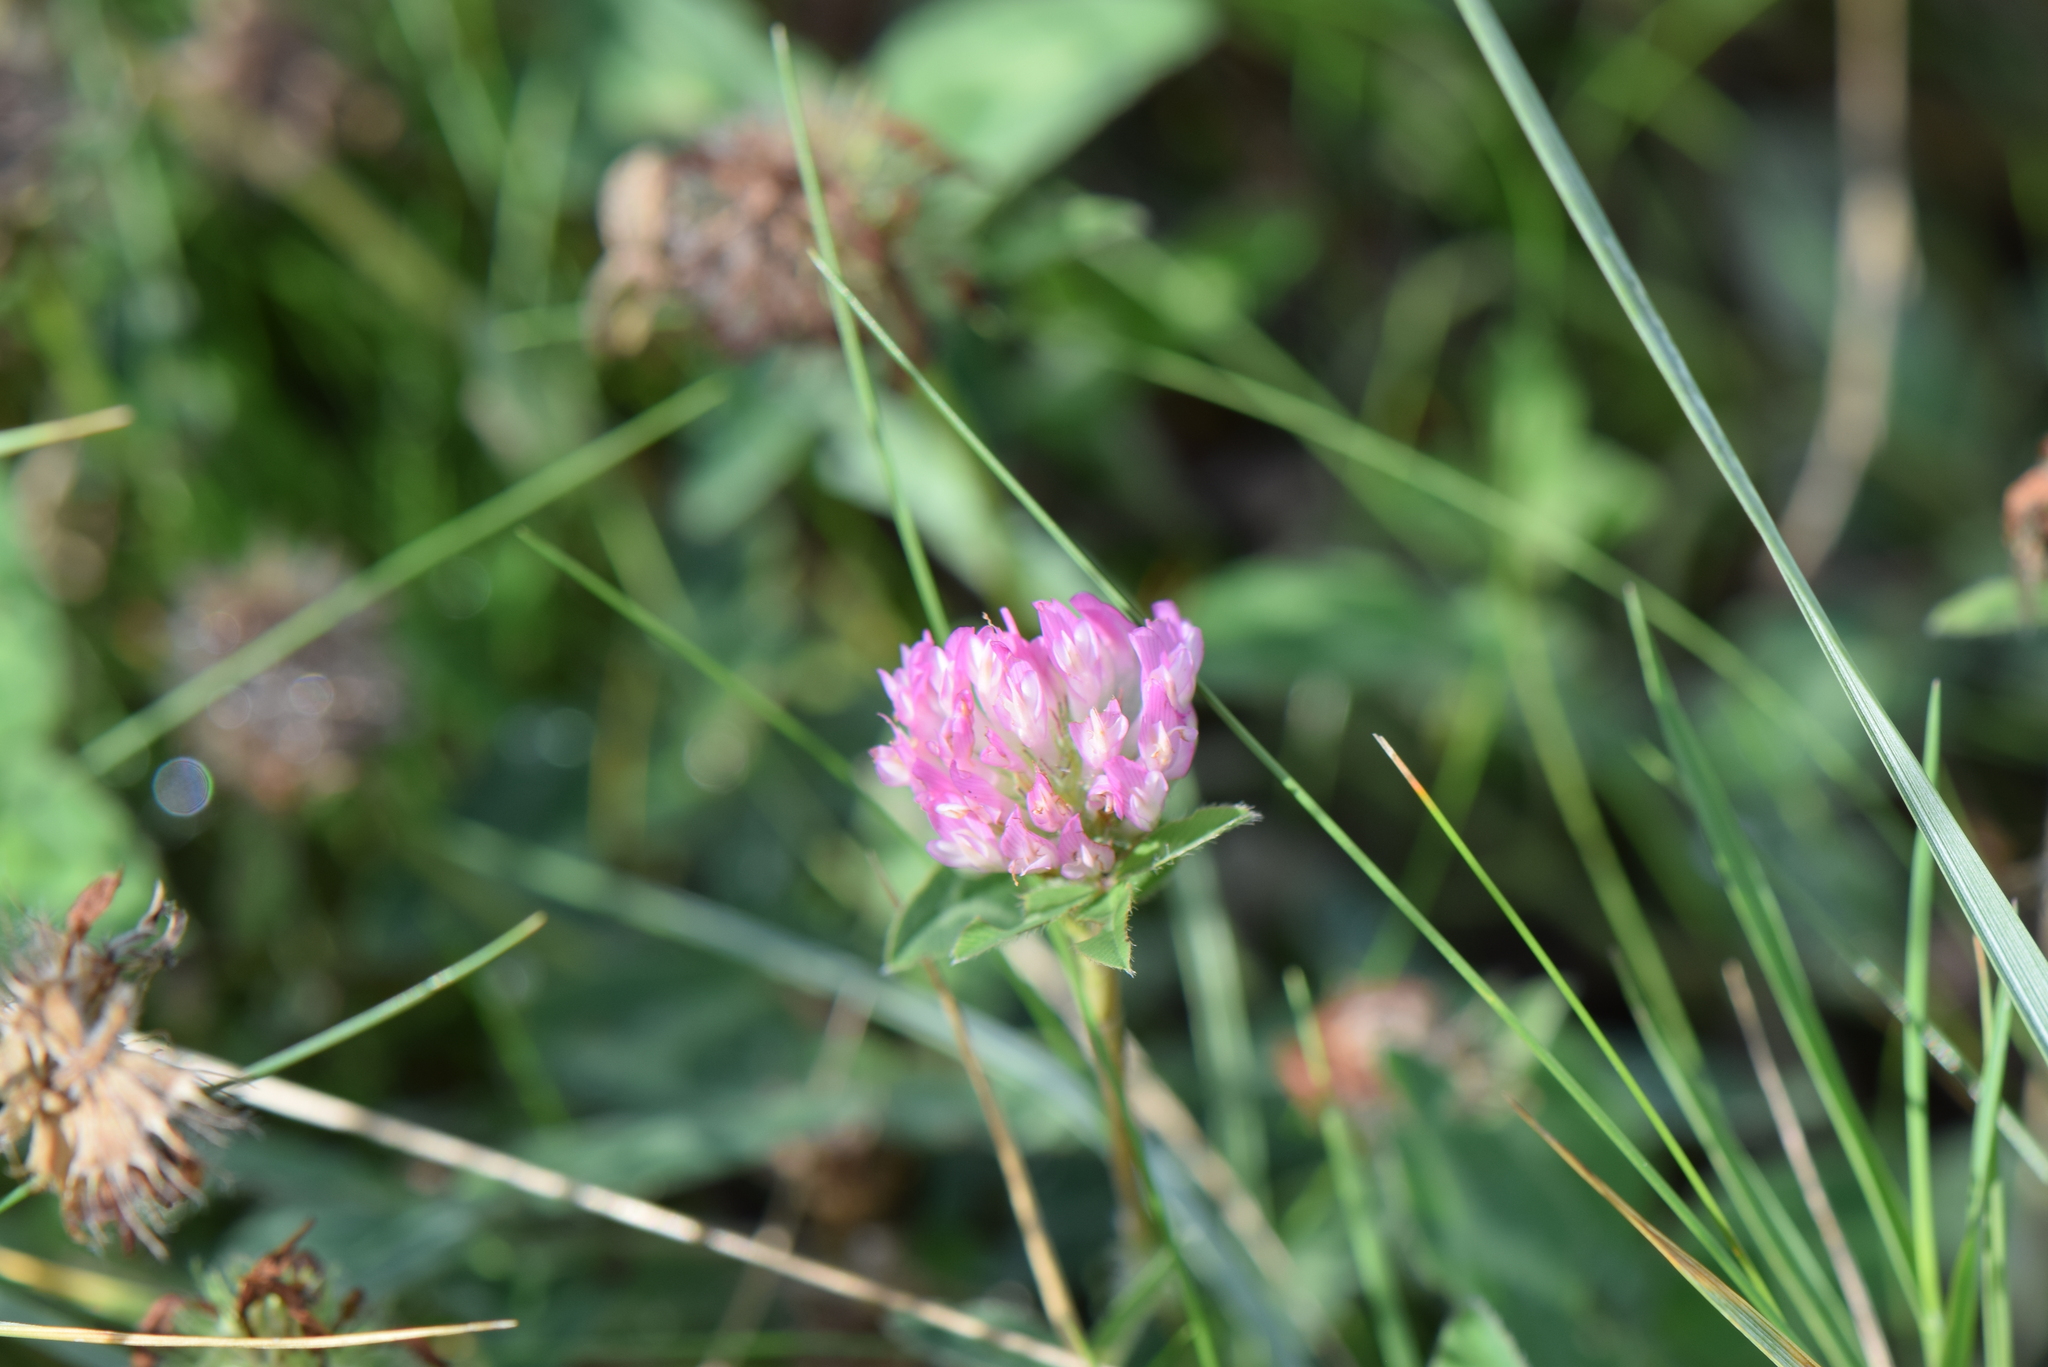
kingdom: Plantae
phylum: Tracheophyta
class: Magnoliopsida
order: Fabales
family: Fabaceae
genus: Trifolium
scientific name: Trifolium pratense
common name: Red clover
